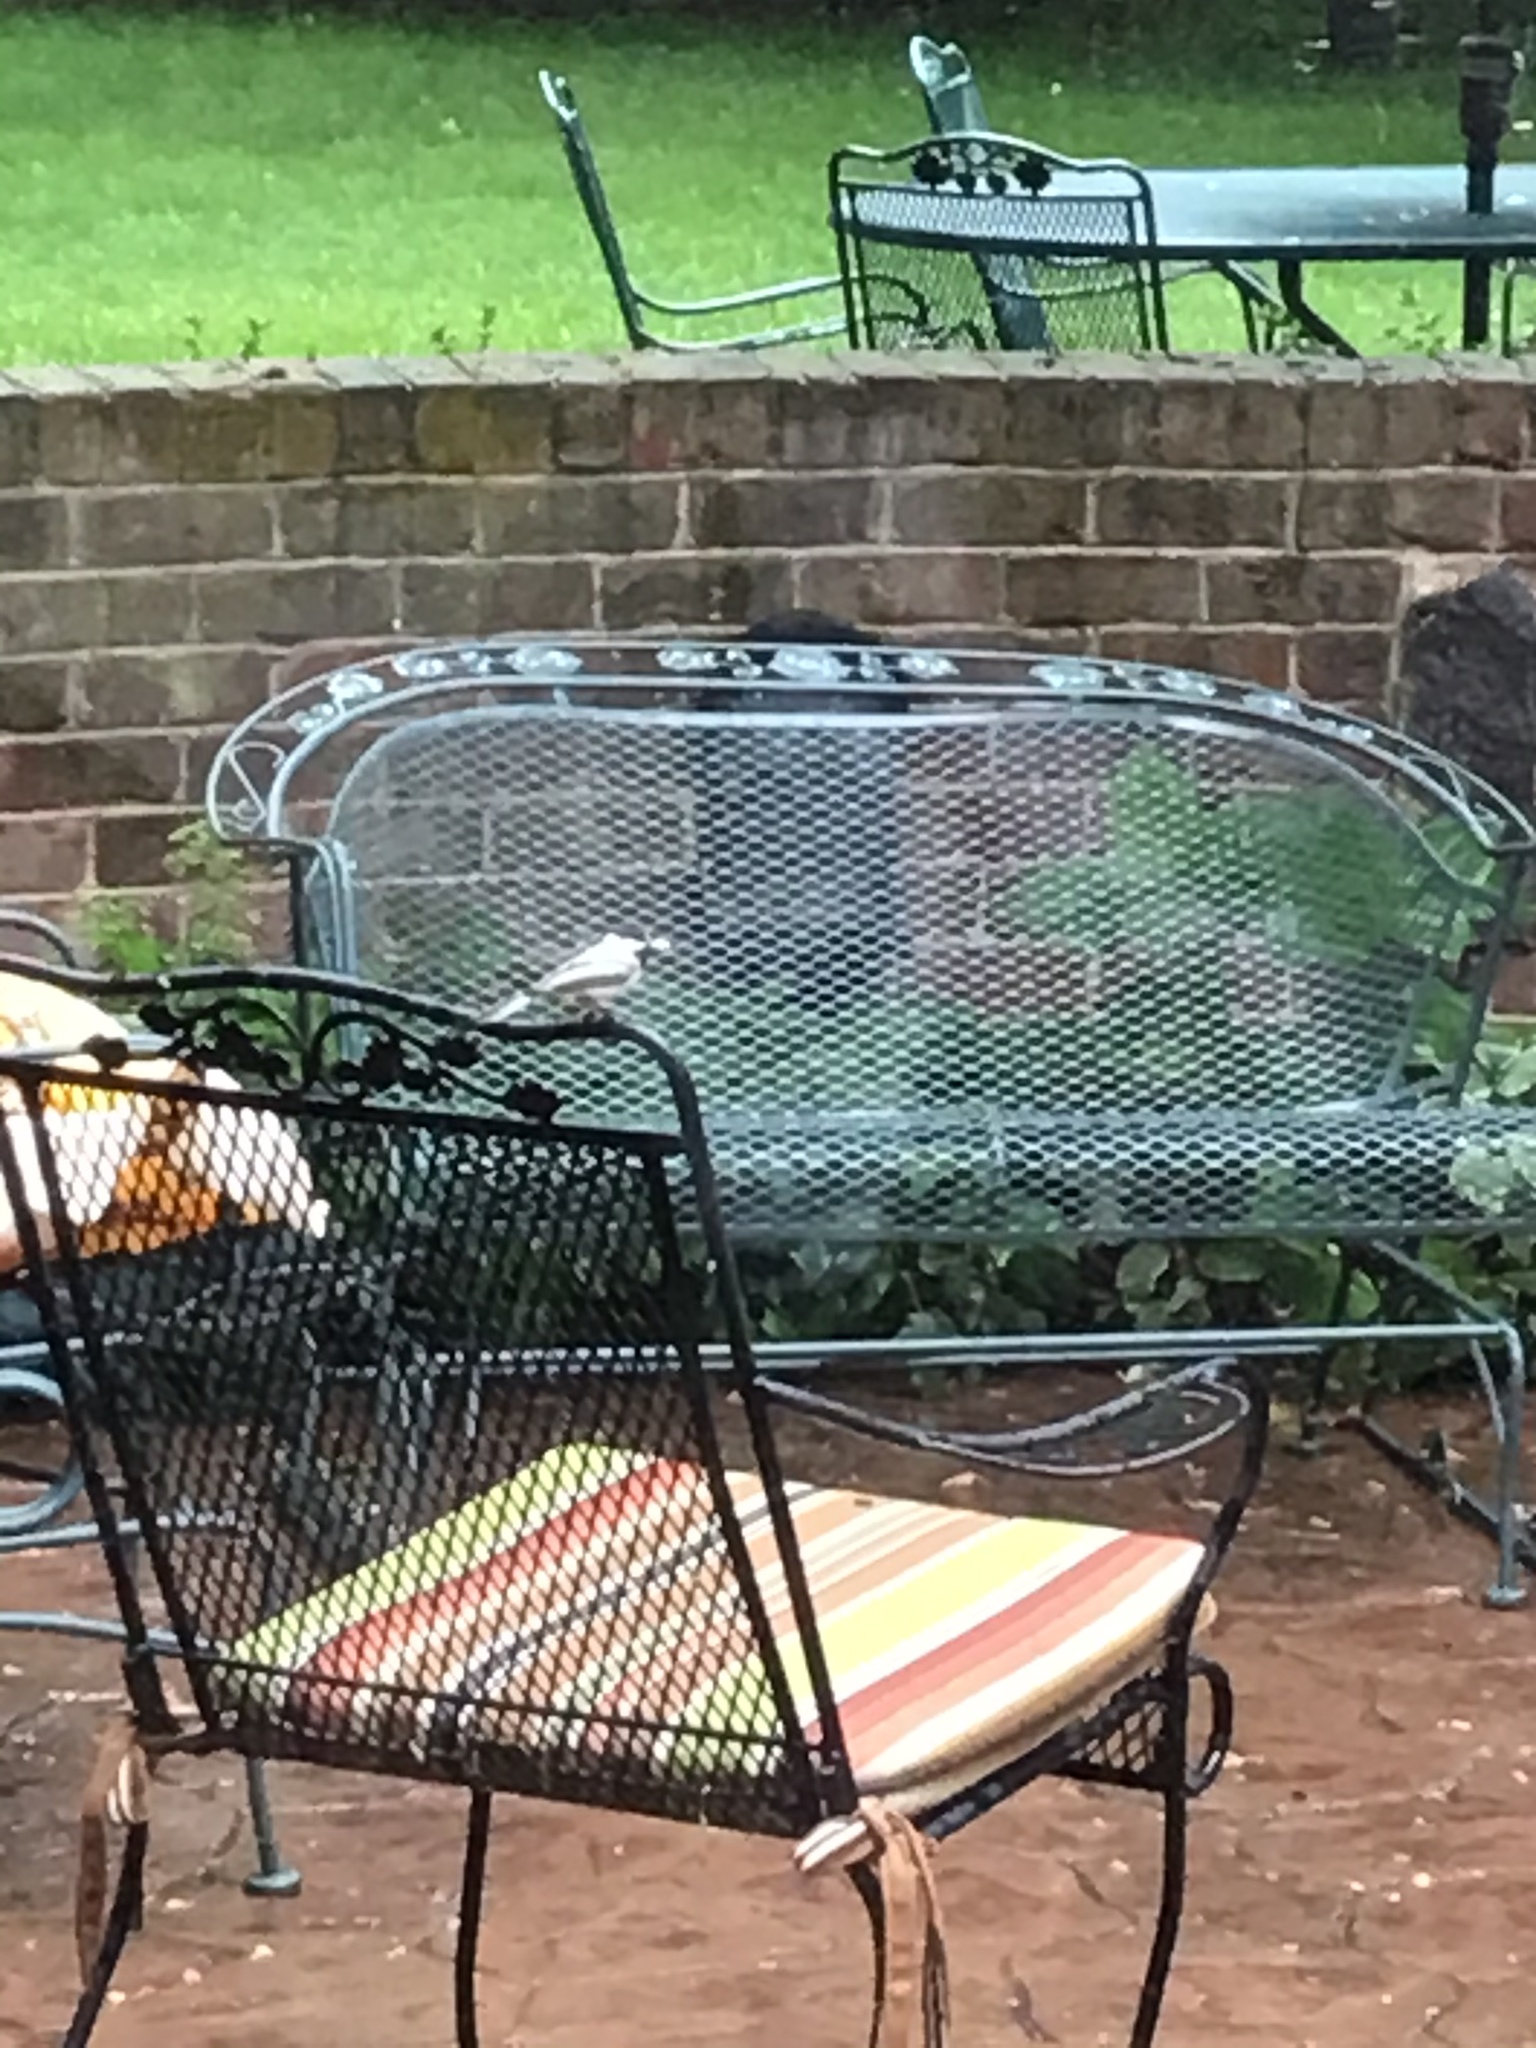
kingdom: Animalia
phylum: Chordata
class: Aves
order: Passeriformes
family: Paridae
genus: Poecile
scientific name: Poecile atricapillus
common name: Black-capped chickadee
